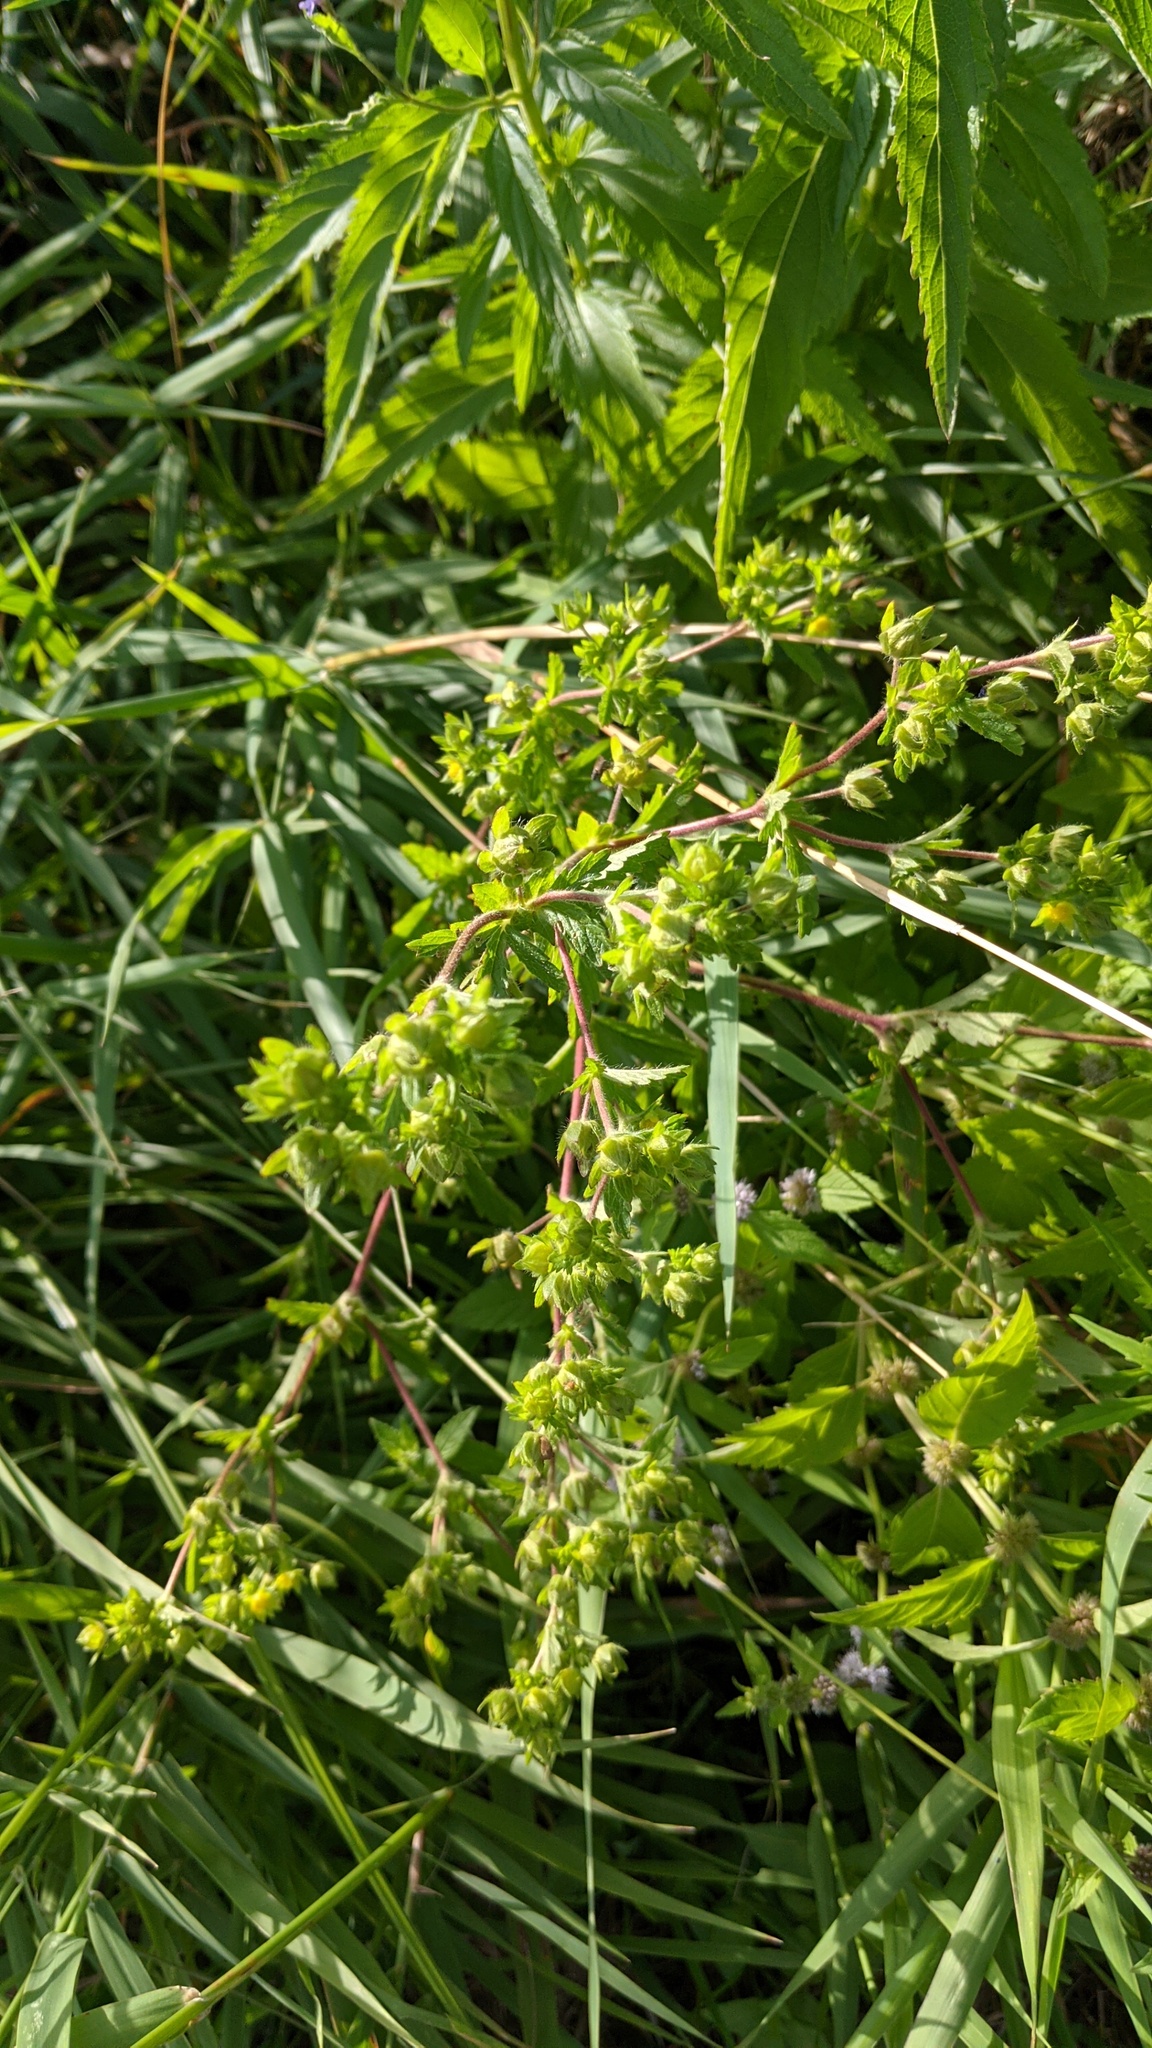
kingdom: Plantae
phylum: Tracheophyta
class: Magnoliopsida
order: Rosales
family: Rosaceae
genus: Potentilla
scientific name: Potentilla norvegica
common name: Ternate-leaved cinquefoil
